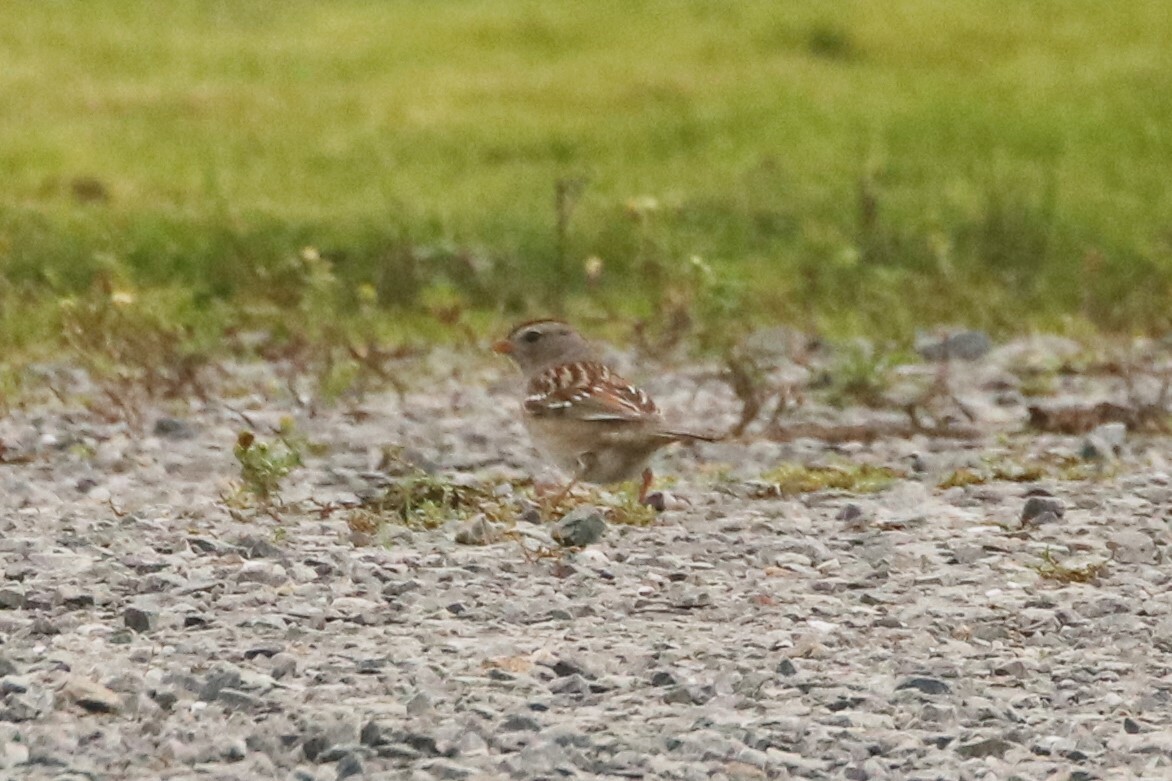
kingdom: Animalia
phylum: Chordata
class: Aves
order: Passeriformes
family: Passerellidae
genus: Zonotrichia
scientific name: Zonotrichia leucophrys
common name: White-crowned sparrow
